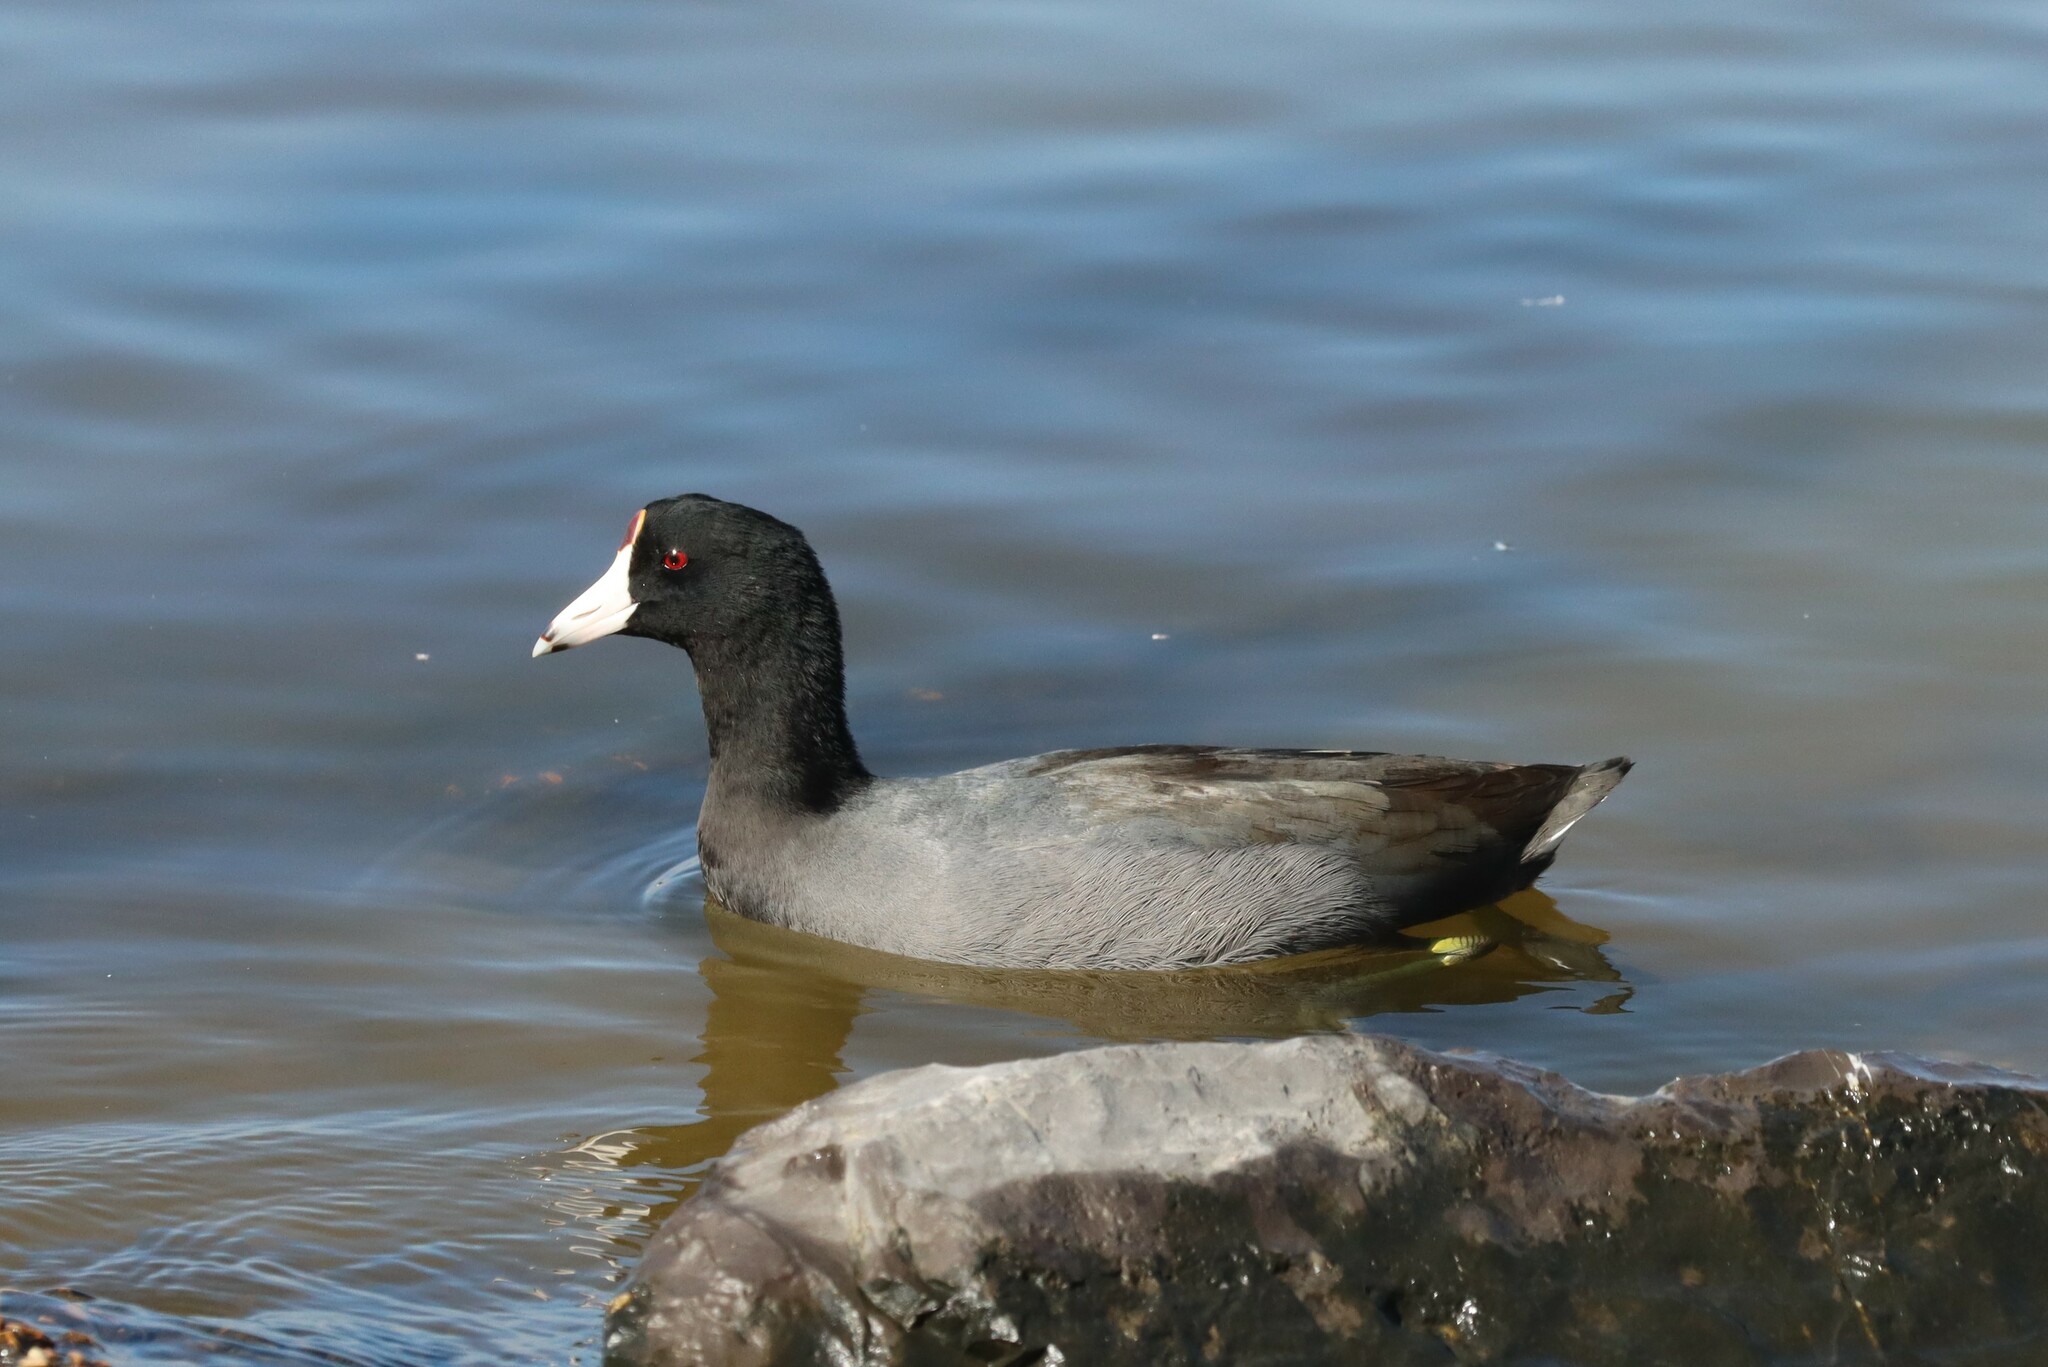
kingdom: Animalia
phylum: Chordata
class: Aves
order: Gruiformes
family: Rallidae
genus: Fulica
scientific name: Fulica americana
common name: American coot
